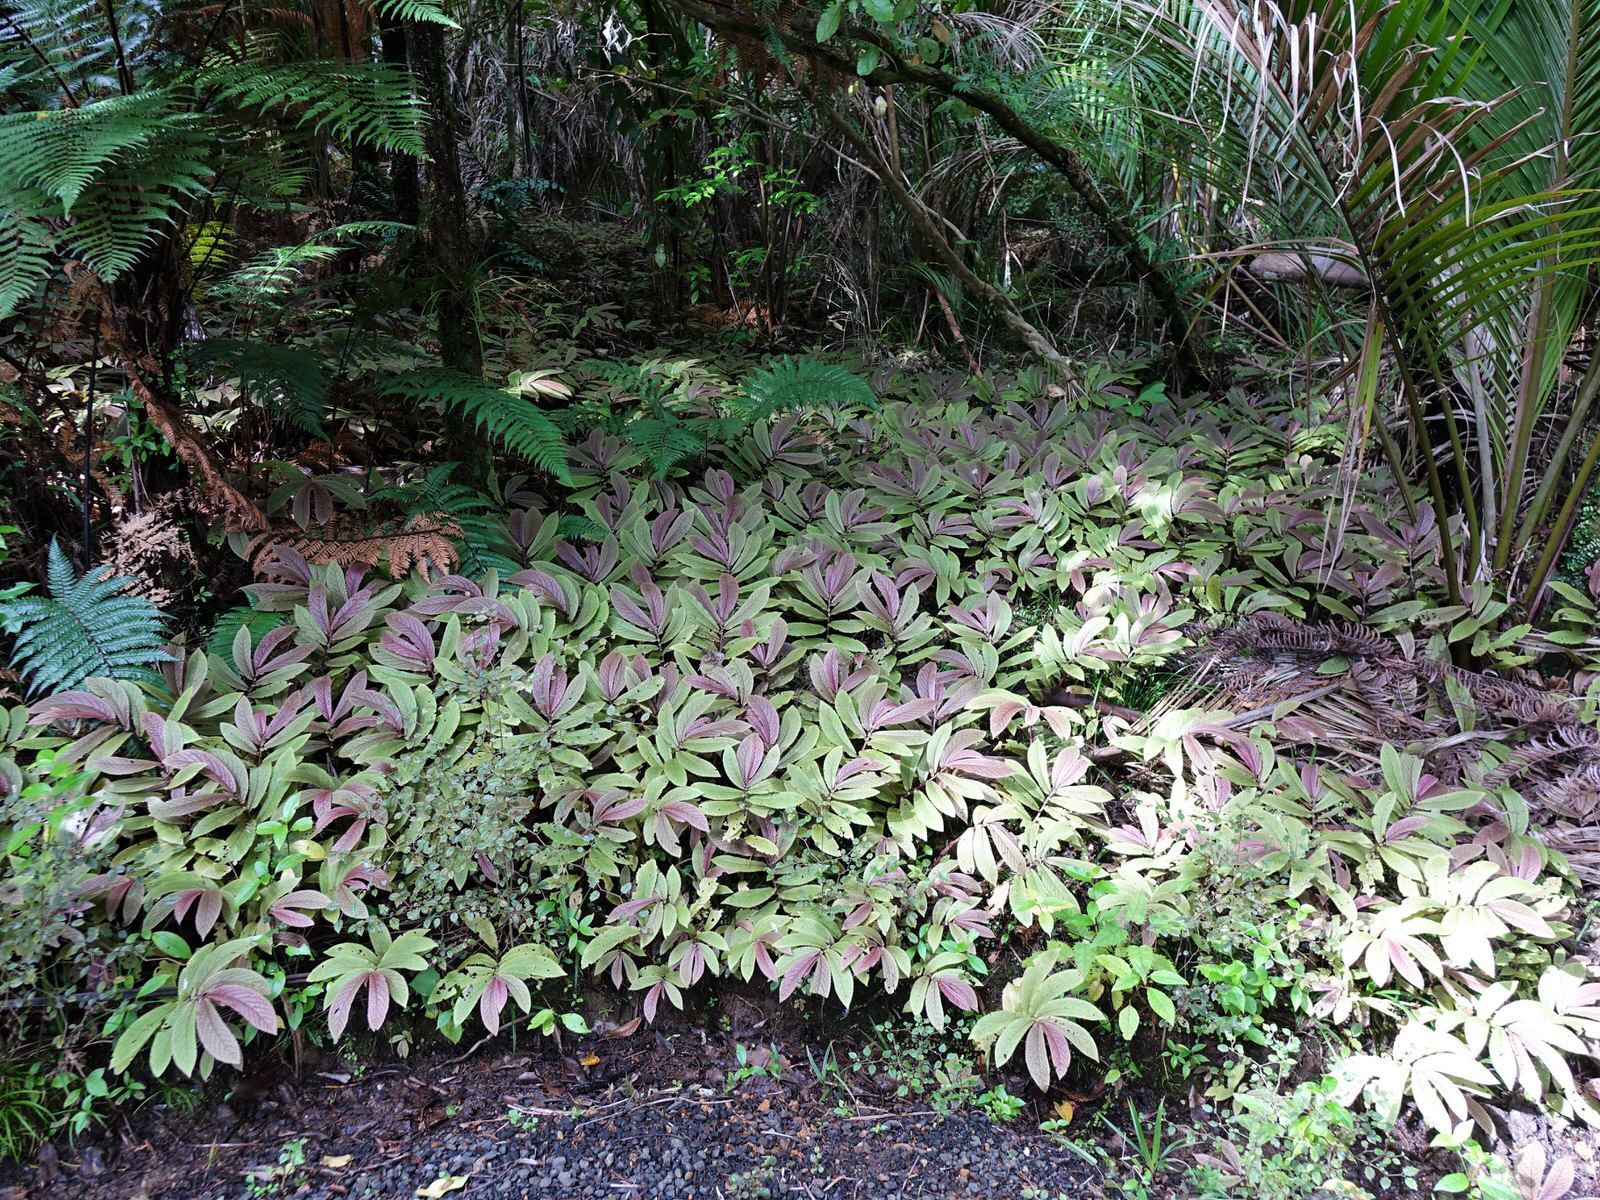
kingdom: Plantae
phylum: Tracheophyta
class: Magnoliopsida
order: Rosales
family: Urticaceae
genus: Elatostema
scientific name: Elatostema rugosum
